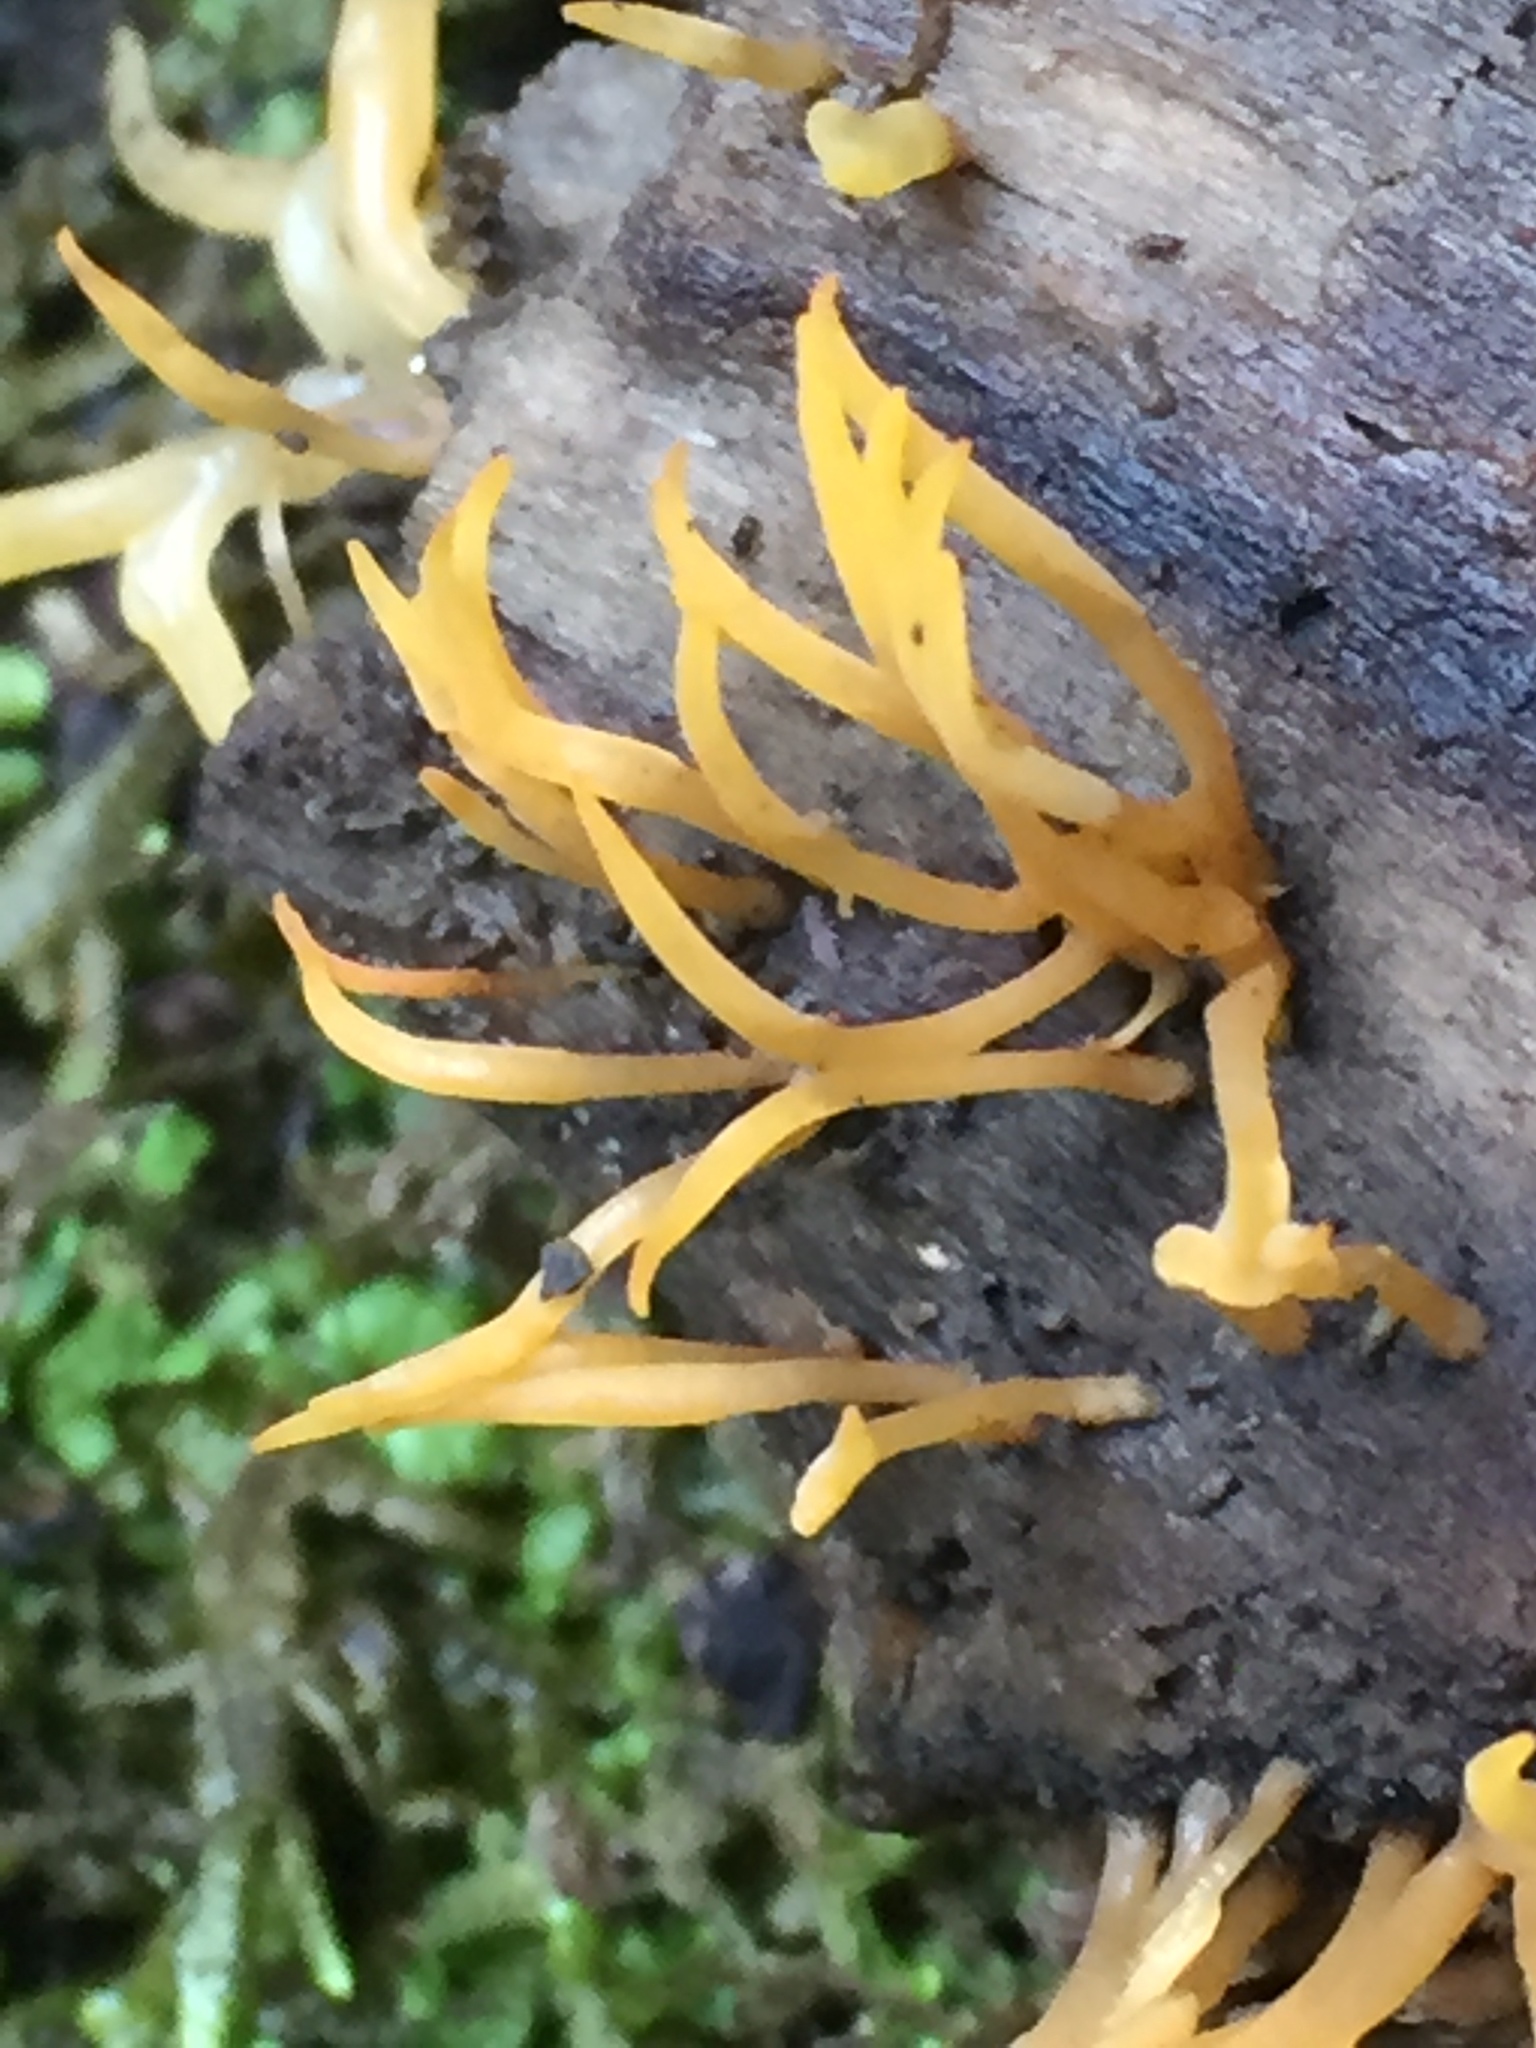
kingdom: Fungi
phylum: Basidiomycota
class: Dacrymycetes
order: Dacrymycetales
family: Dacrymycetaceae
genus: Calocera
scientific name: Calocera cornea
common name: Small stagshorn
